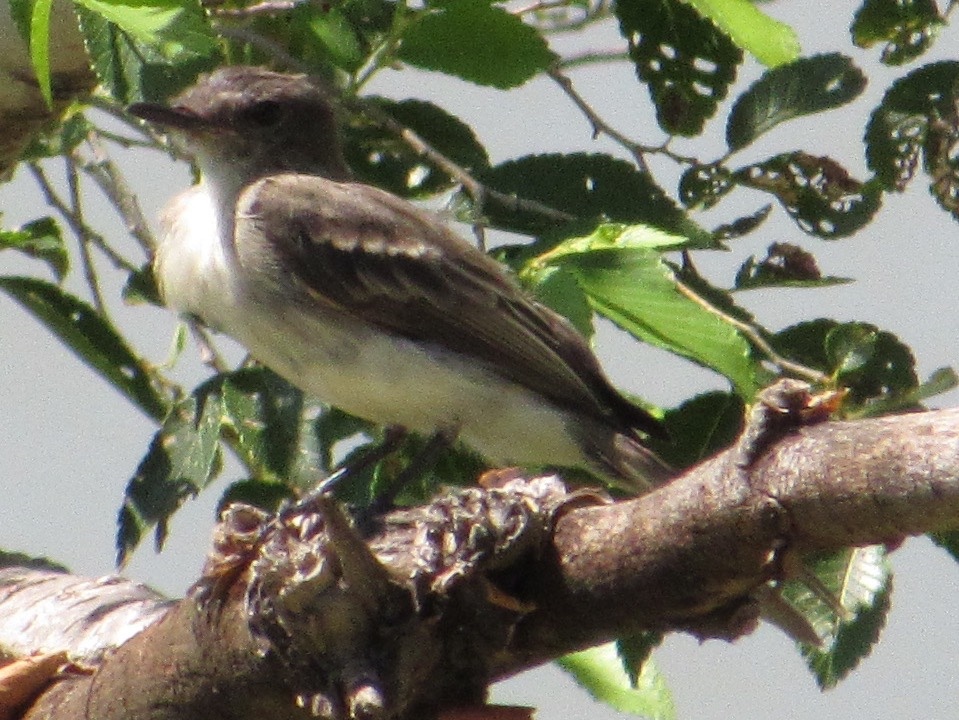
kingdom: Animalia
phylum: Chordata
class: Aves
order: Passeriformes
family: Tyrannidae
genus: Sayornis
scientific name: Sayornis phoebe
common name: Eastern phoebe
